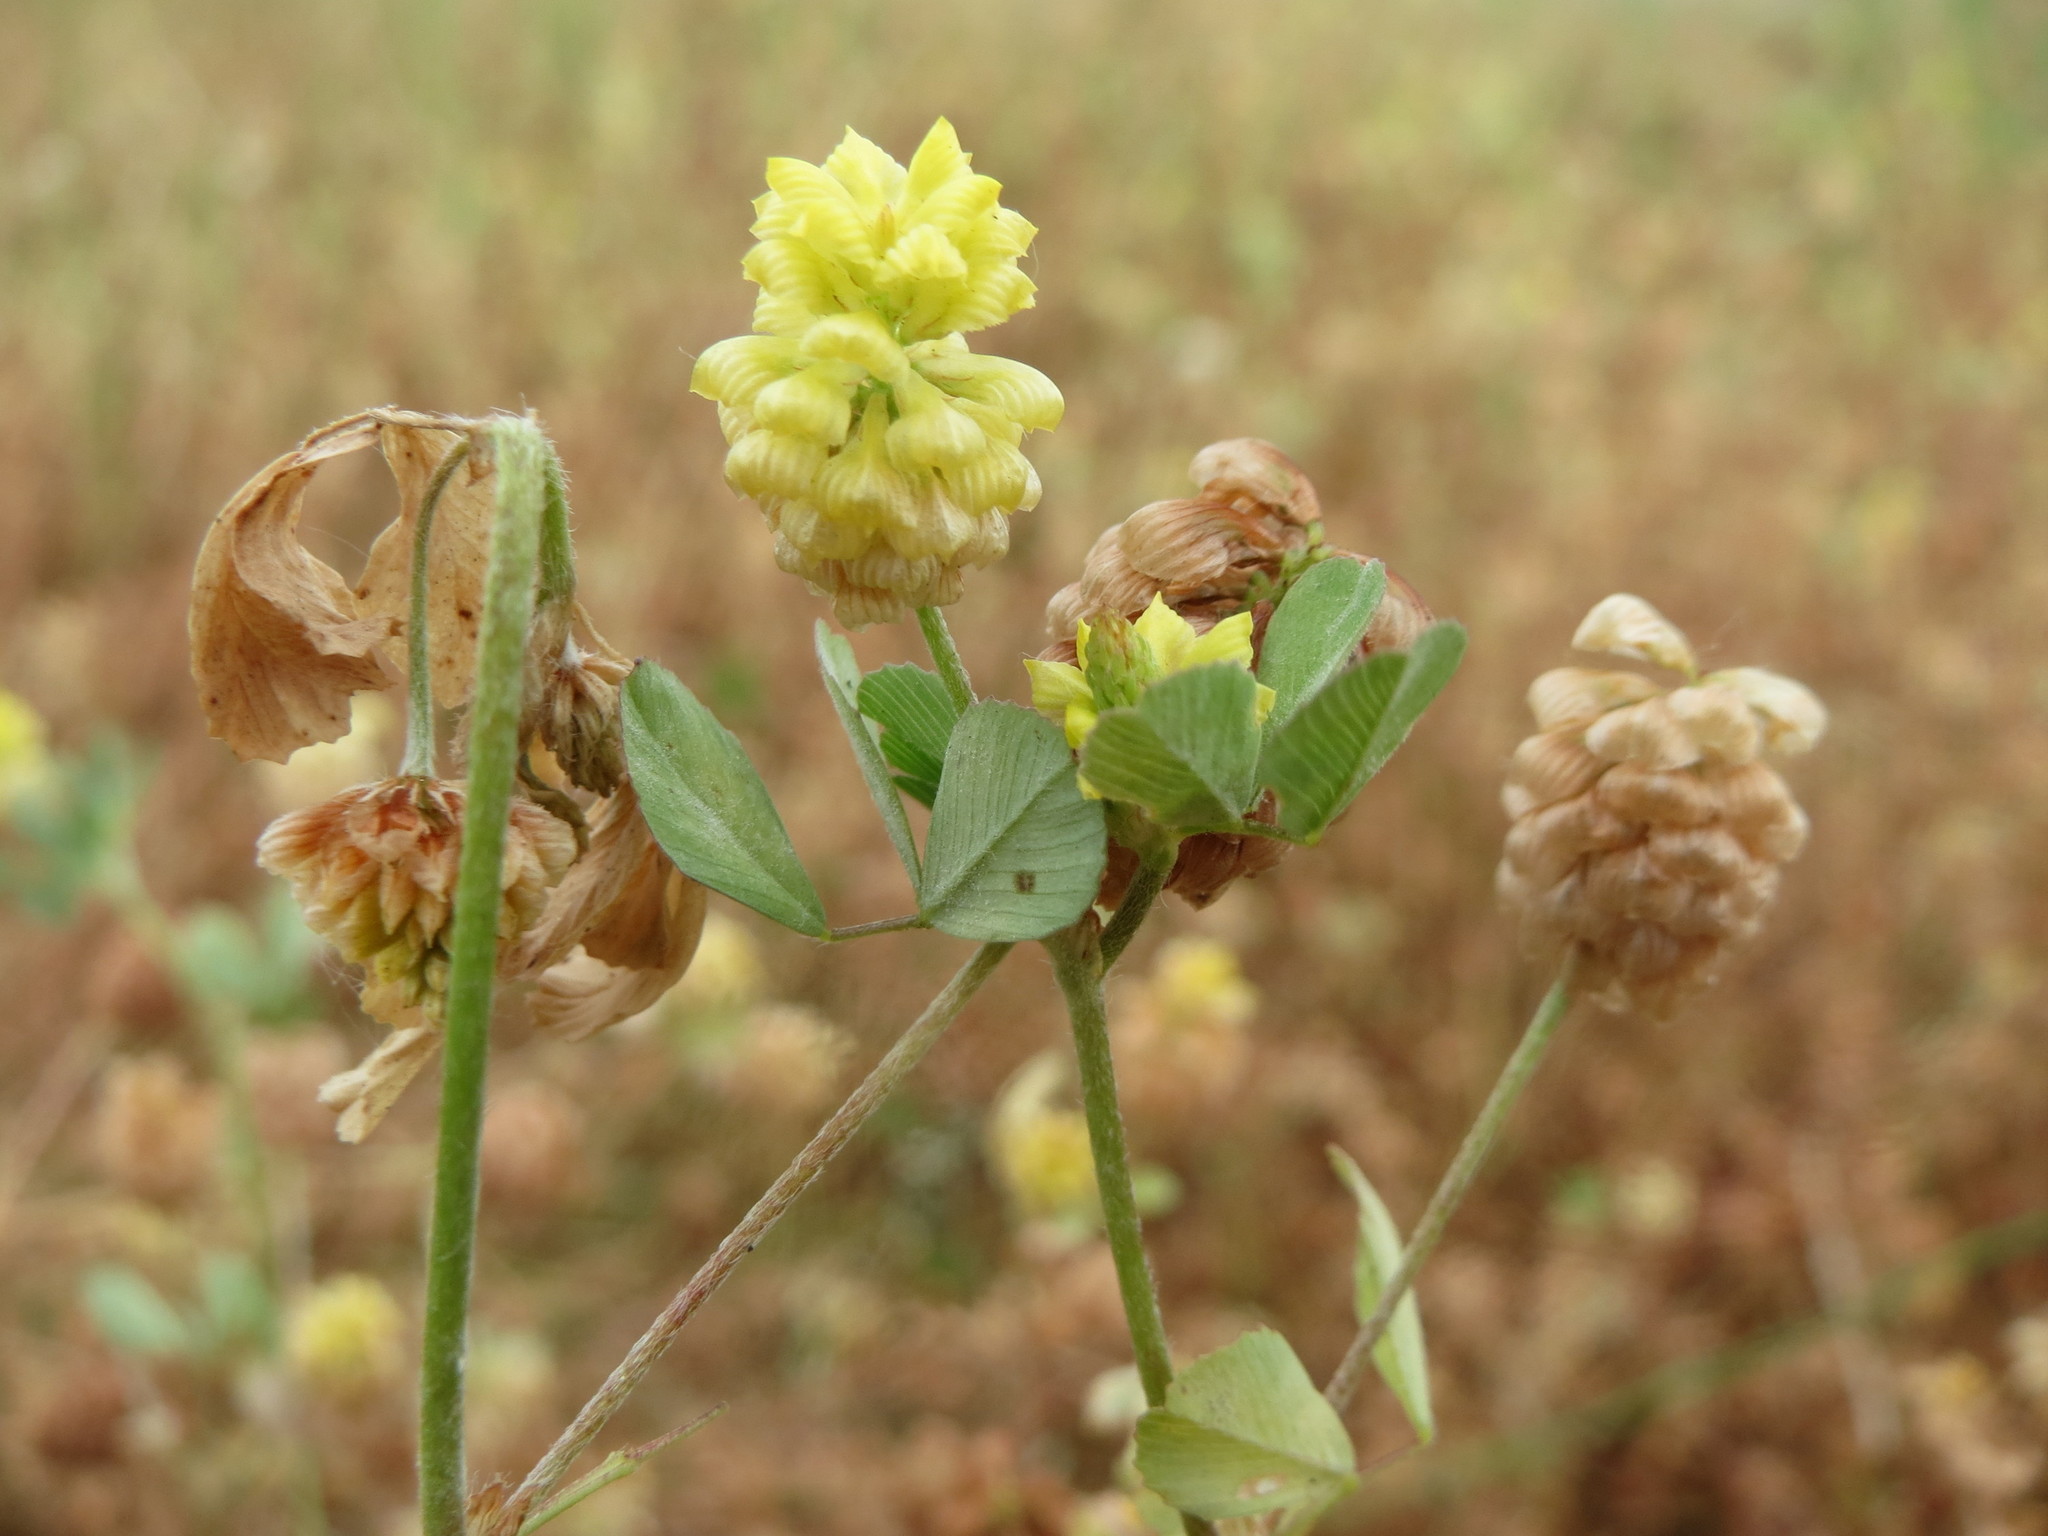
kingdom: Plantae
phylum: Tracheophyta
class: Magnoliopsida
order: Fabales
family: Fabaceae
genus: Trifolium
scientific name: Trifolium campestre
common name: Field clover
